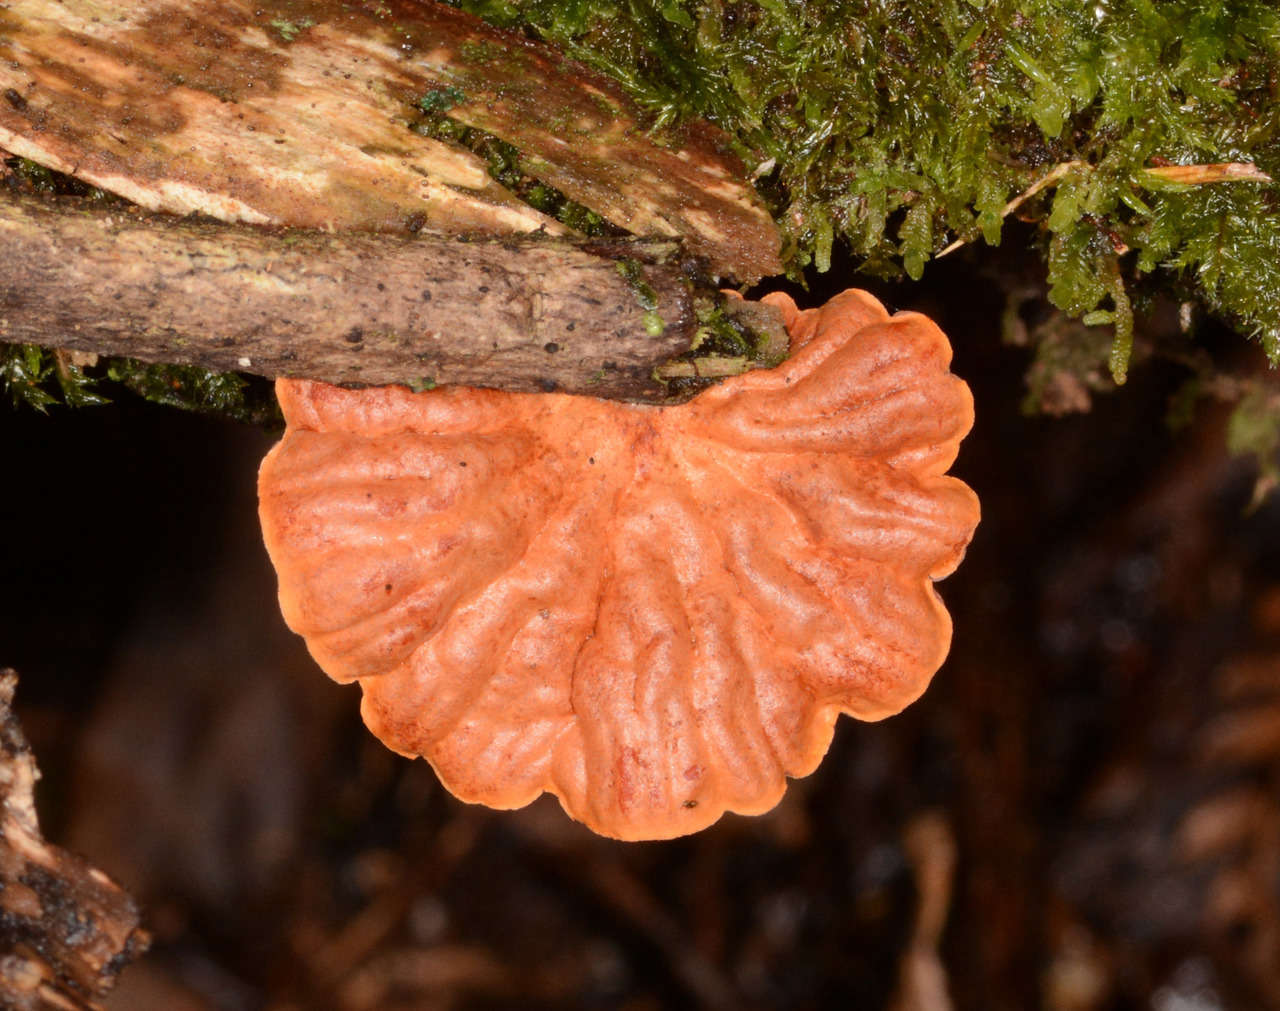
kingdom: Fungi
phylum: Basidiomycota
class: Agaricomycetes
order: Agaricales
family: Omphalotaceae
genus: Anthracophyllum
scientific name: Anthracophyllum archeri
